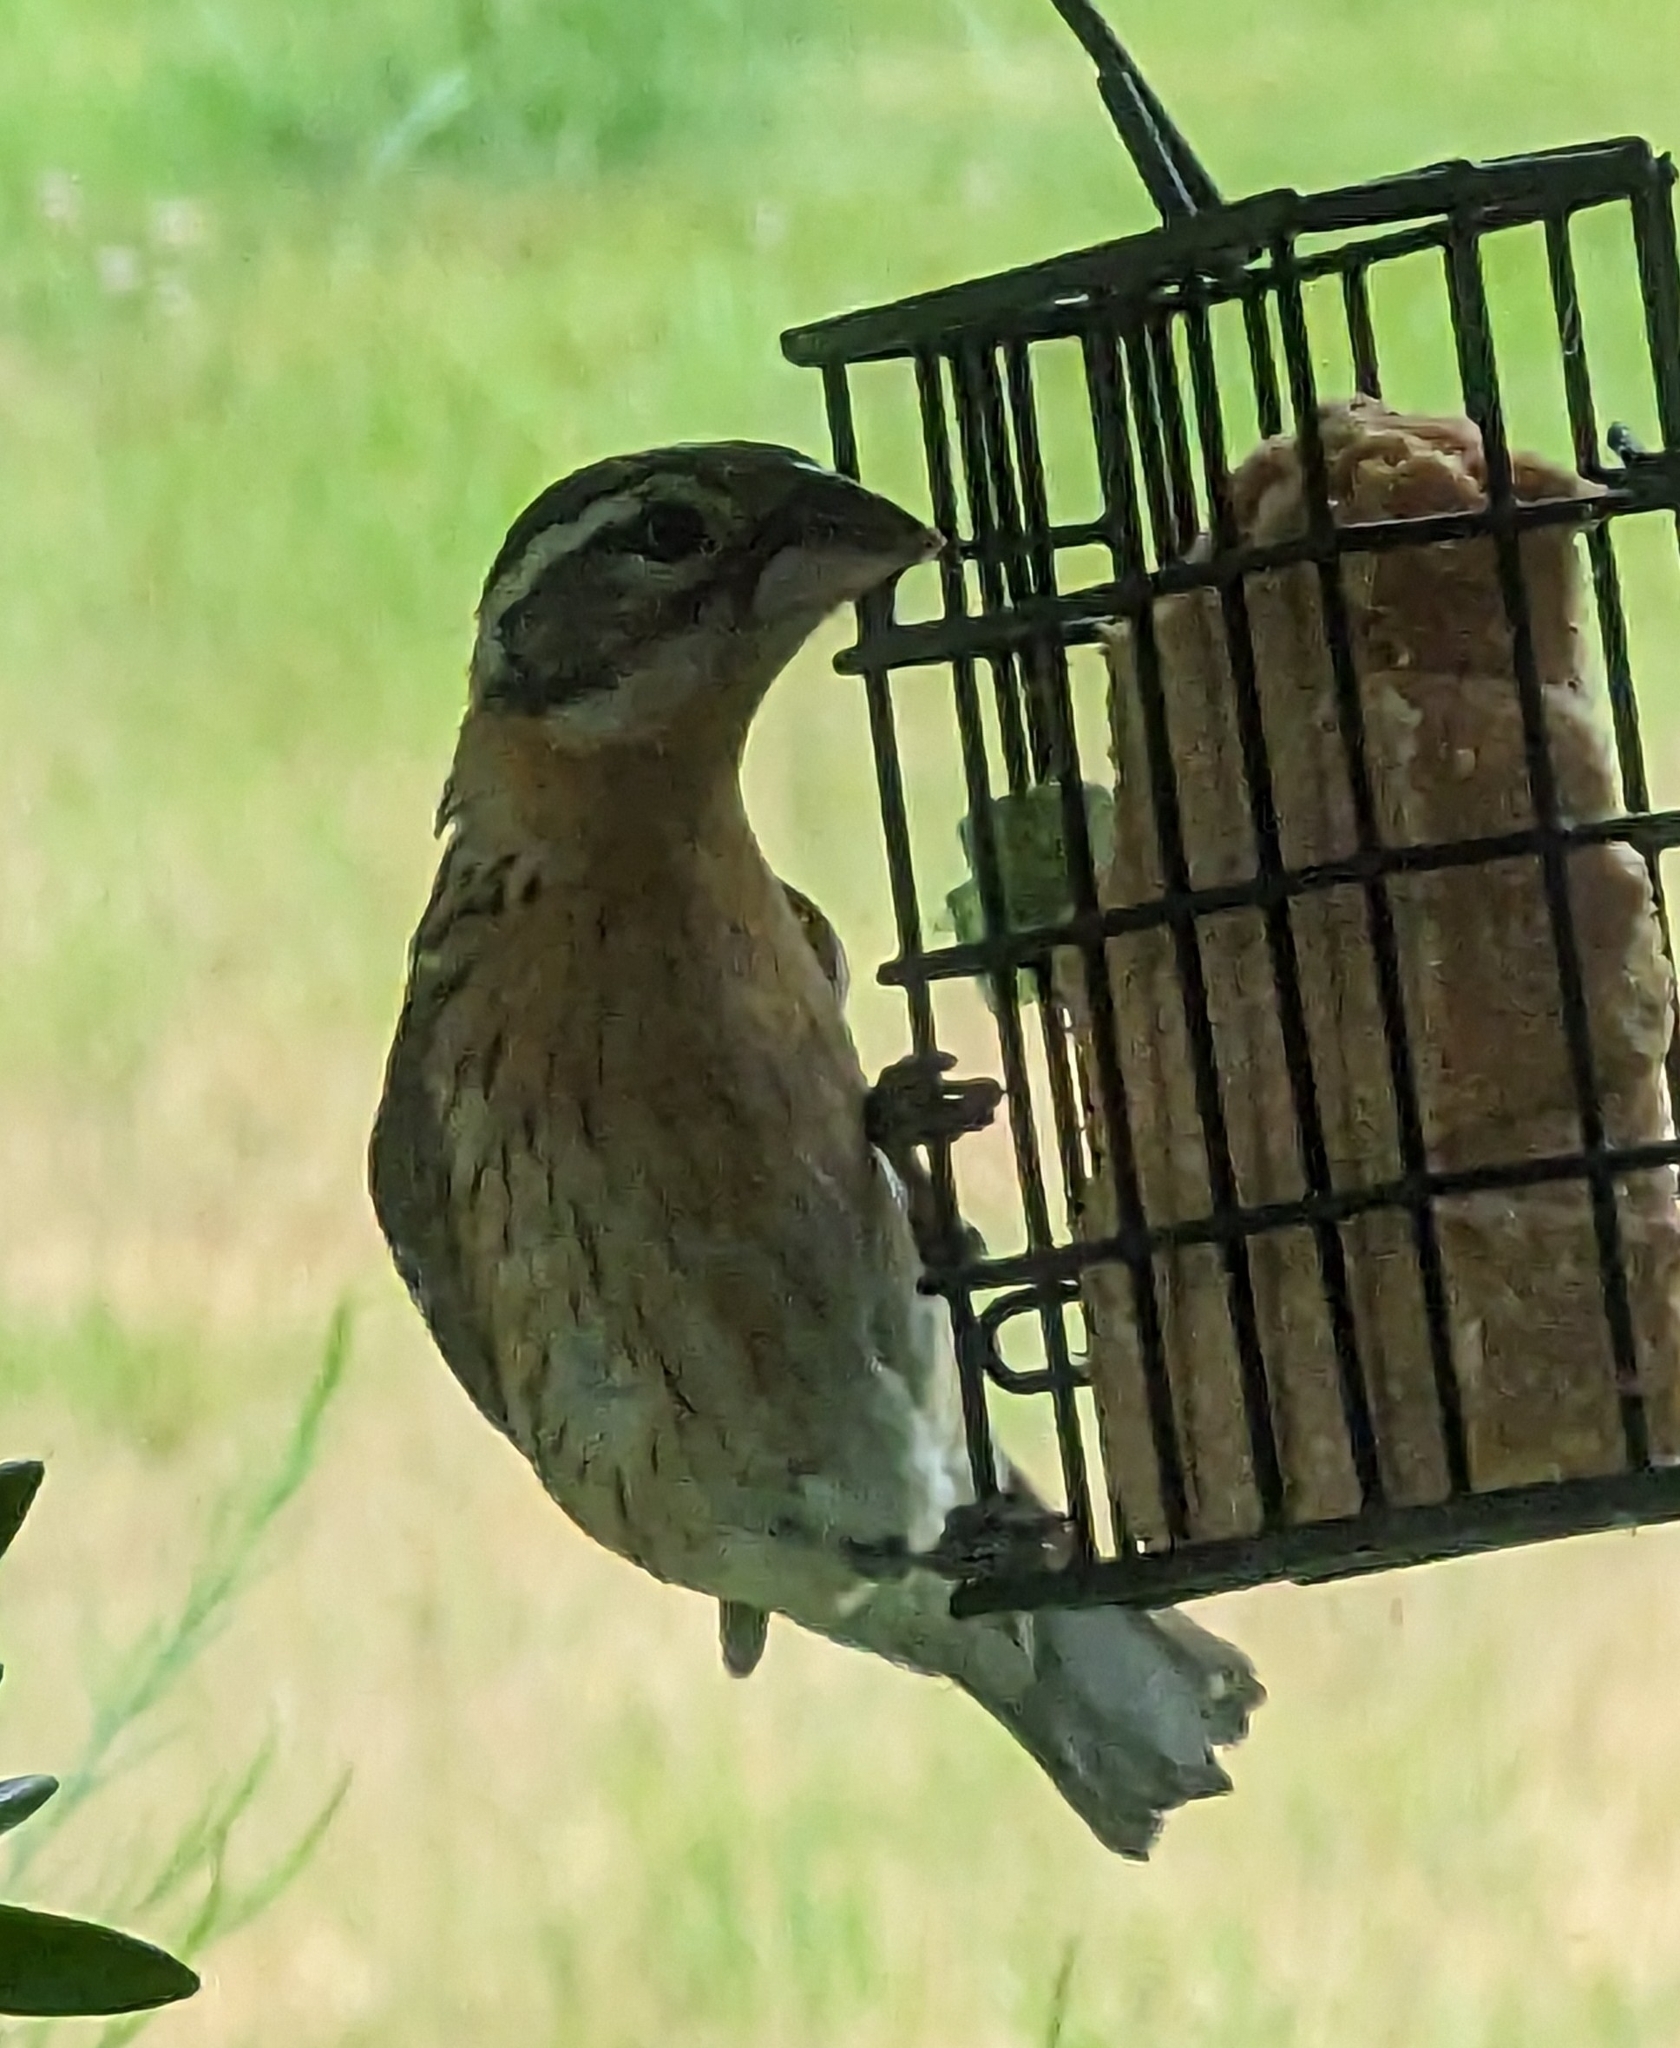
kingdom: Animalia
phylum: Chordata
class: Aves
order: Passeriformes
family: Cardinalidae
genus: Pheucticus
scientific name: Pheucticus melanocephalus
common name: Black-headed grosbeak
